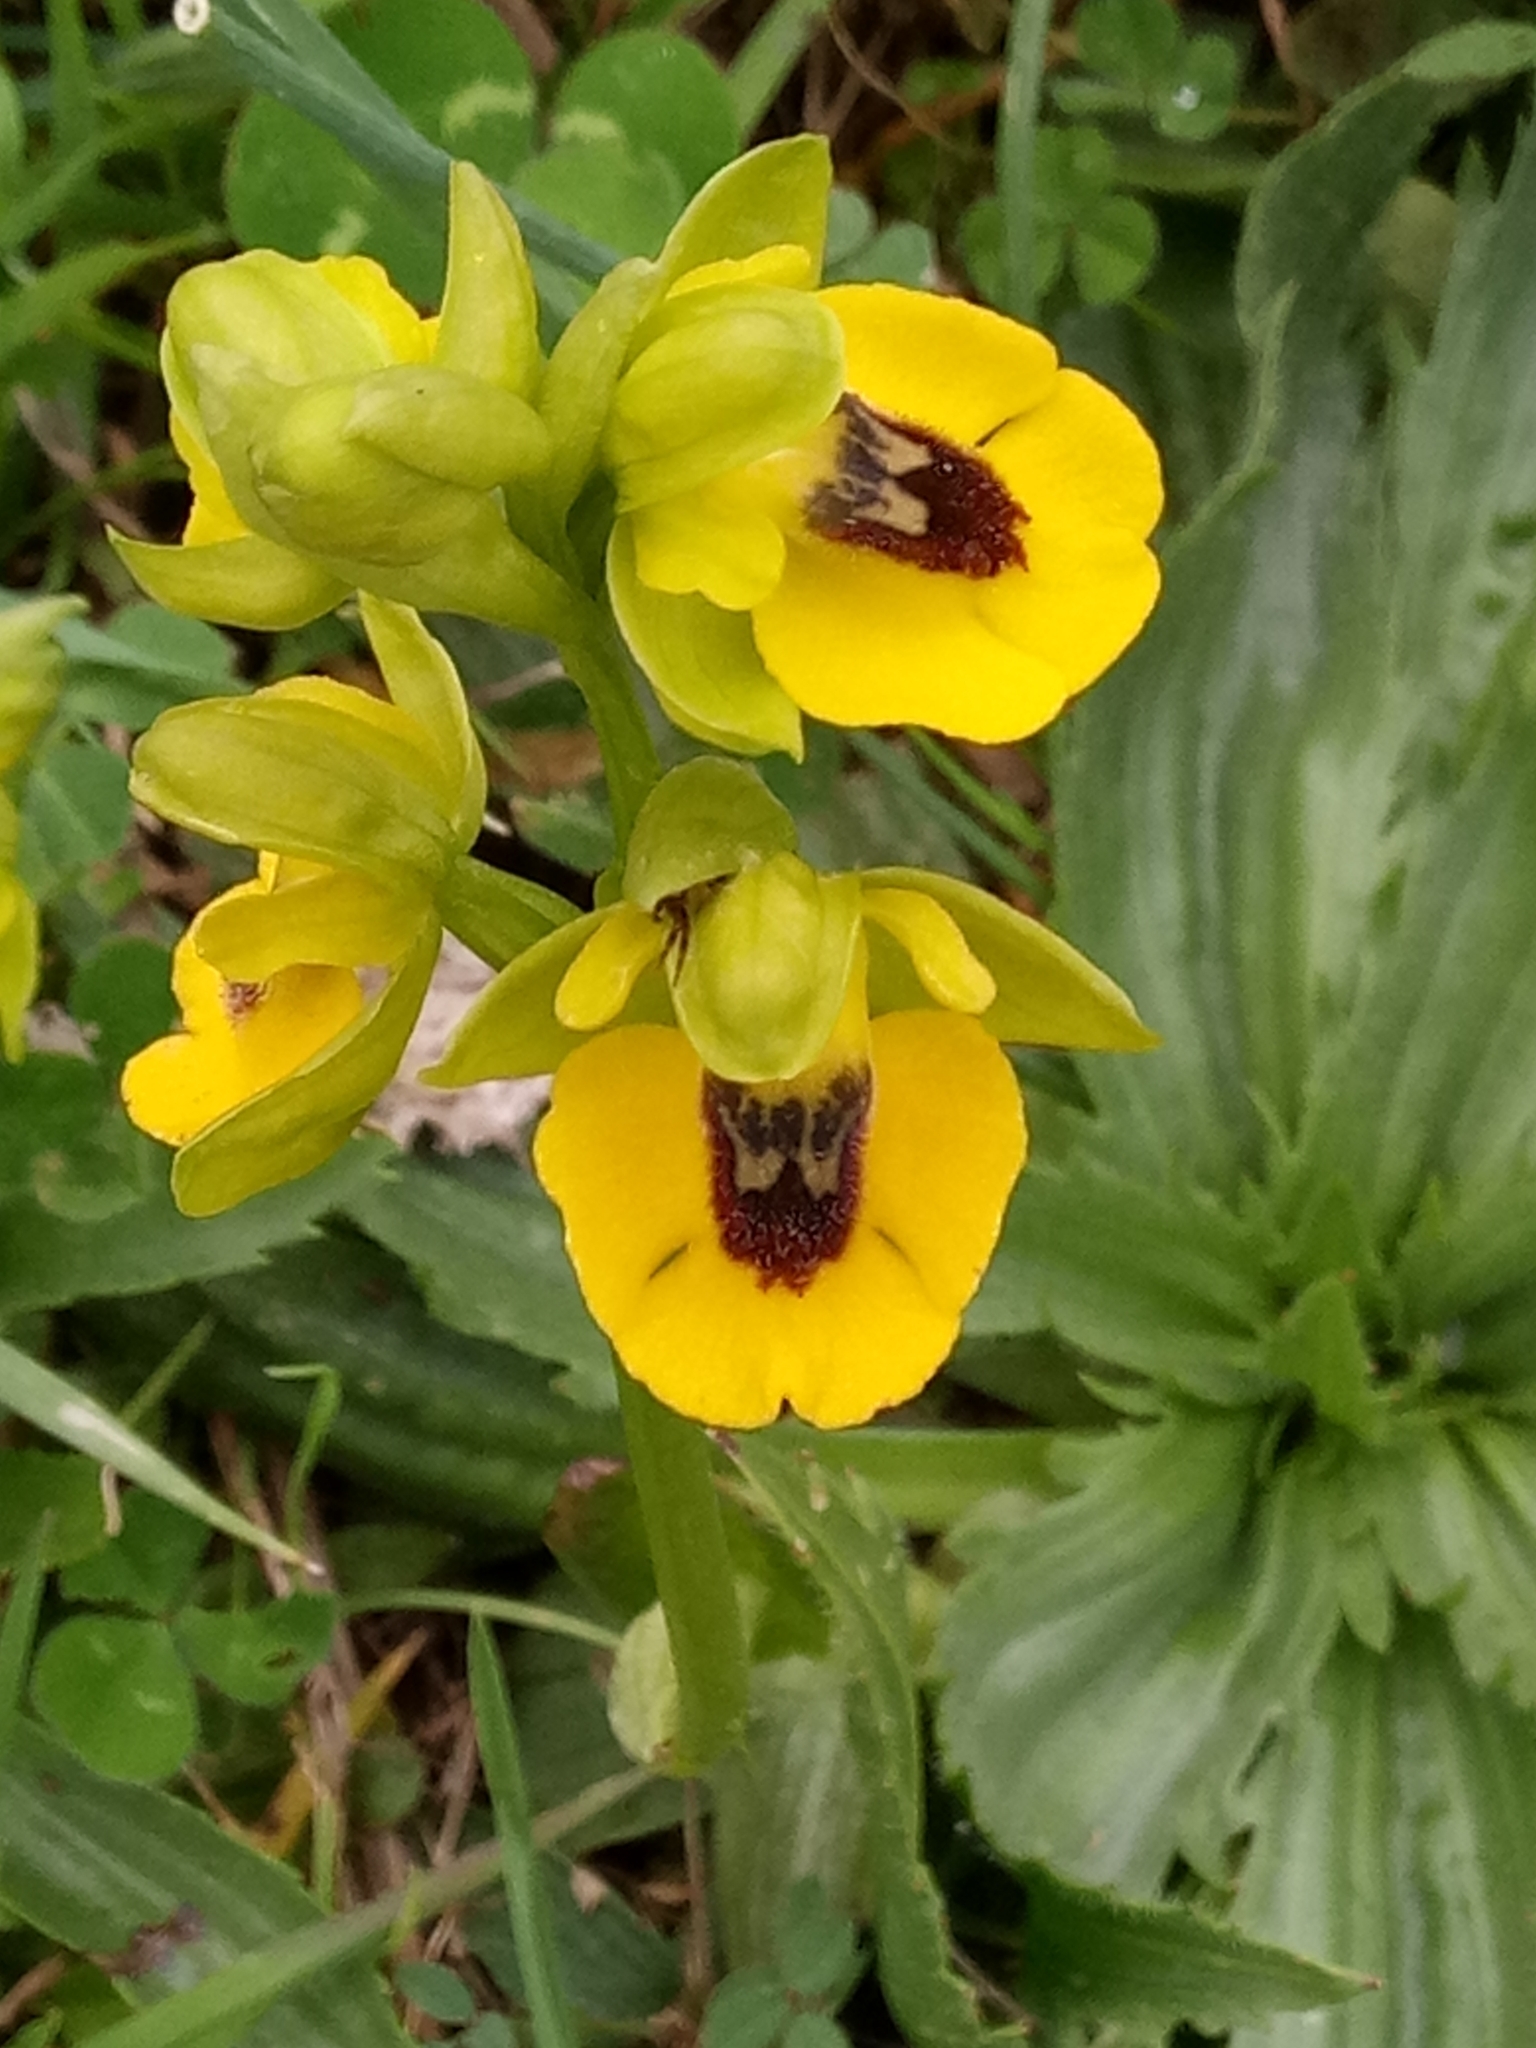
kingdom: Plantae
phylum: Tracheophyta
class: Liliopsida
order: Asparagales
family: Orchidaceae
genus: Ophrys
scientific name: Ophrys lutea
